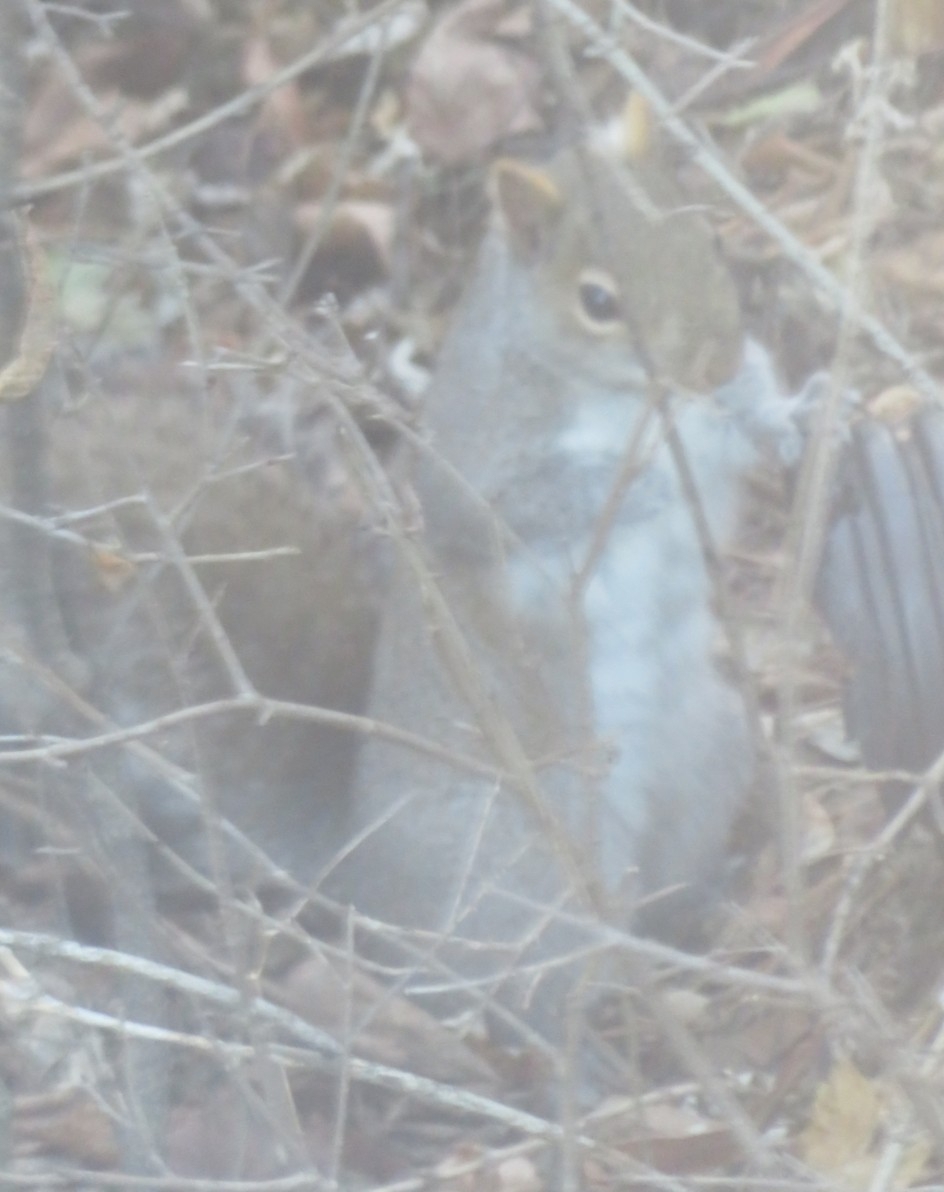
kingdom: Animalia
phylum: Chordata
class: Mammalia
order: Rodentia
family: Sciuridae
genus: Sciurus
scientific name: Sciurus carolinensis
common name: Eastern gray squirrel
